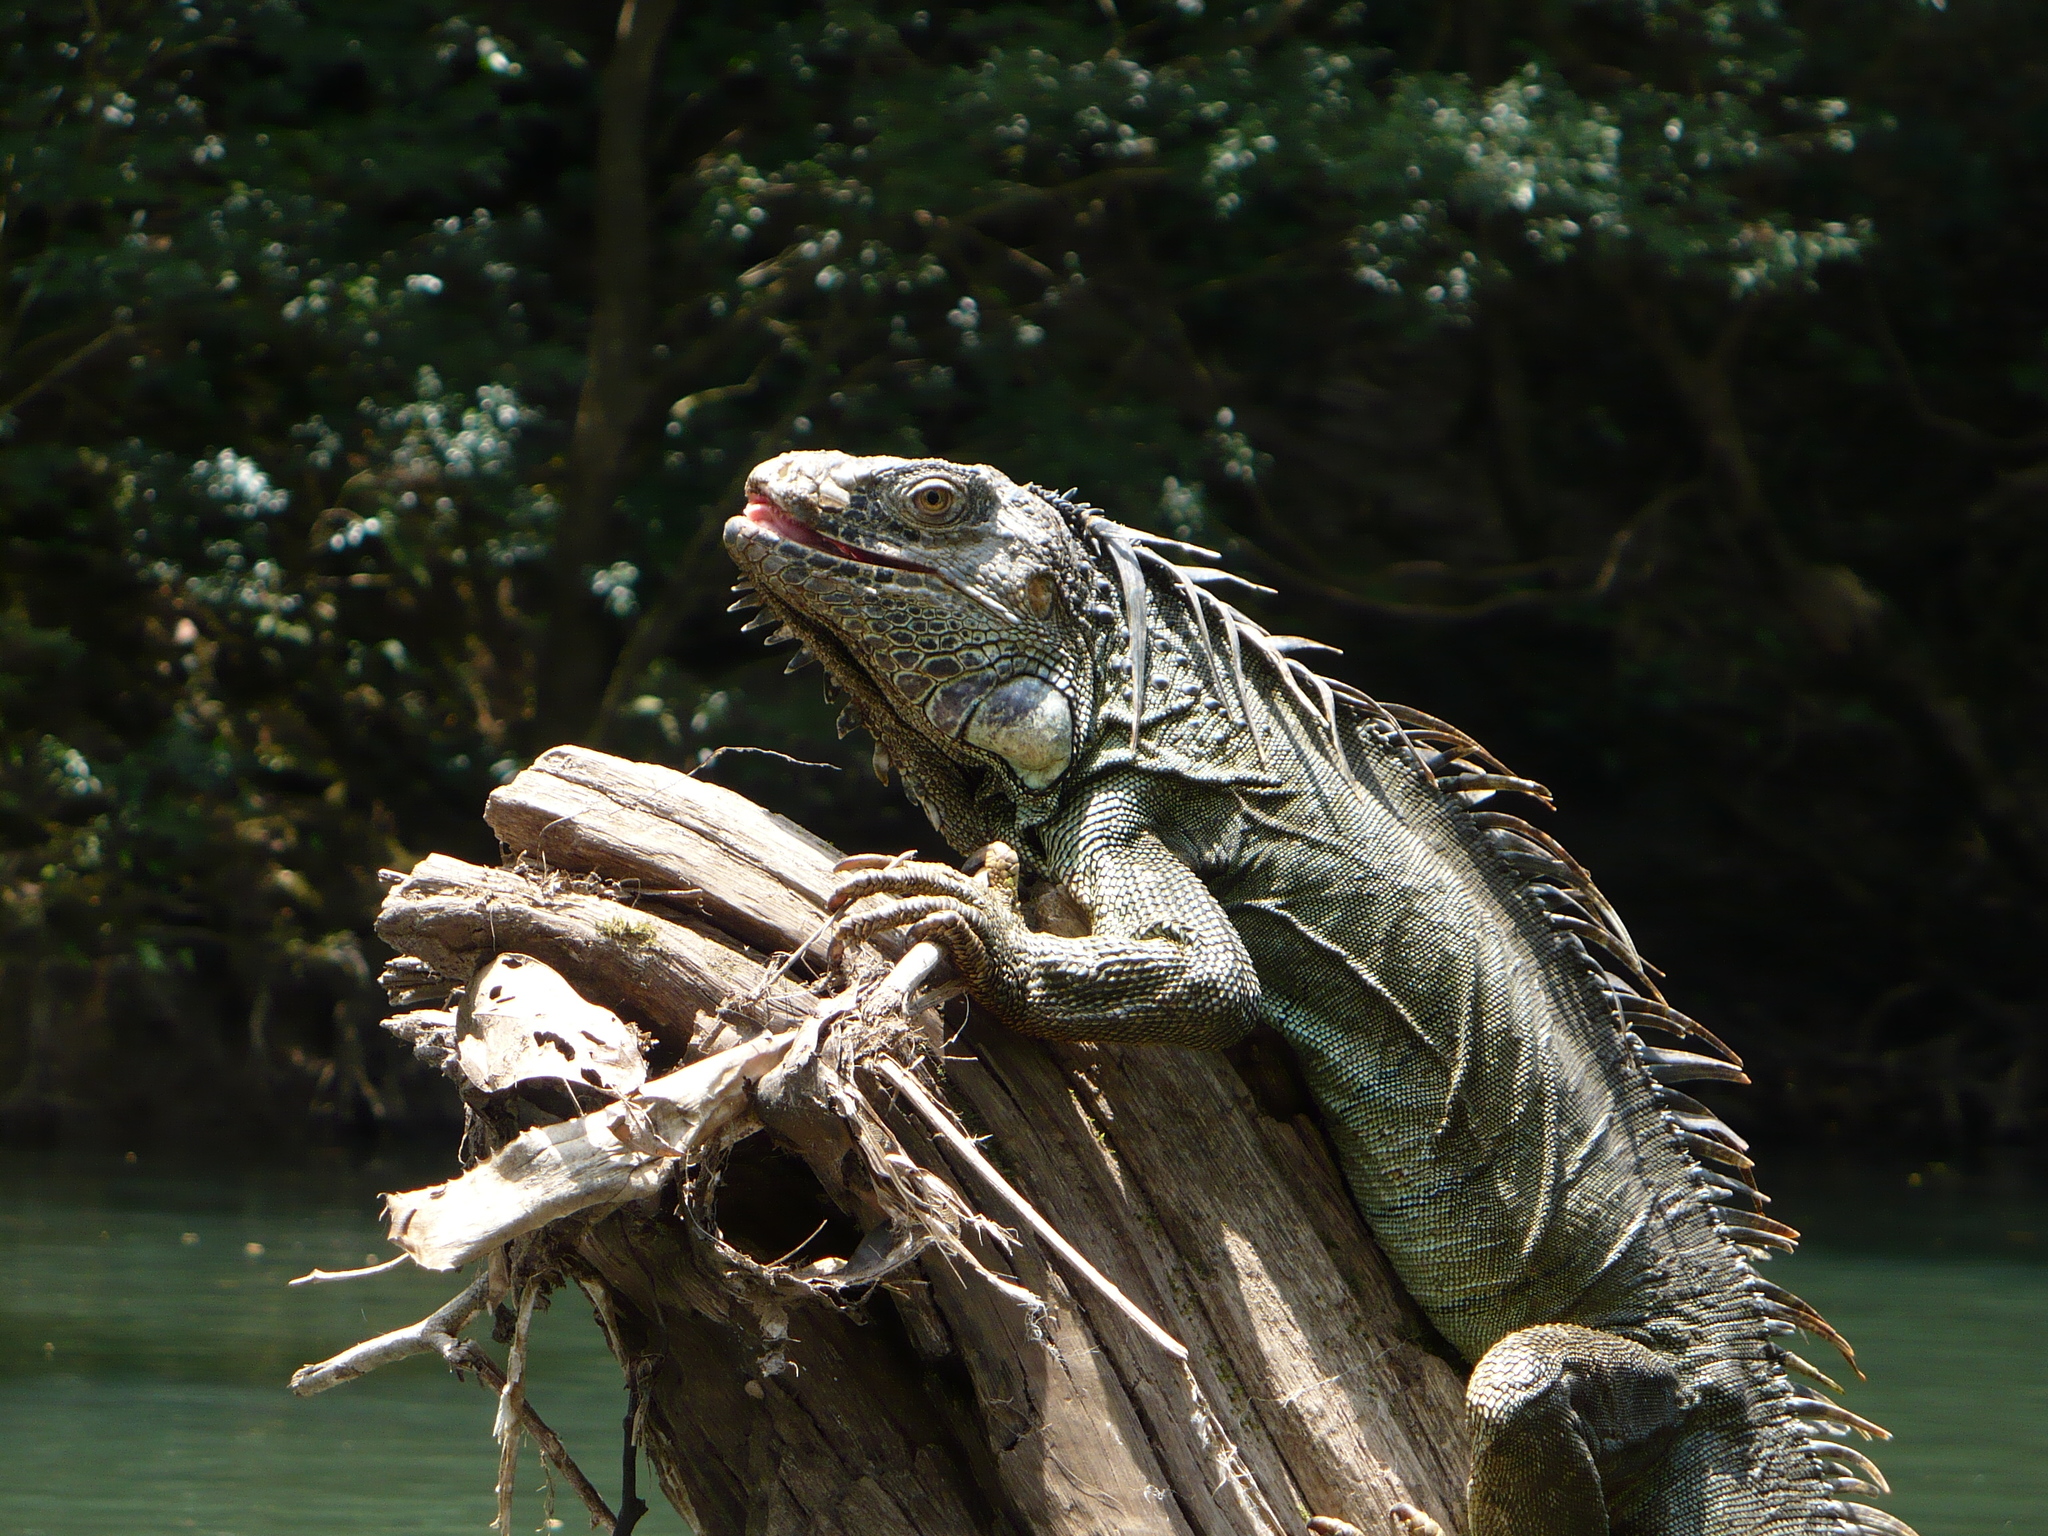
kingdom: Animalia
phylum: Chordata
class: Squamata
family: Iguanidae
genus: Iguana
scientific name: Iguana iguana
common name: Green iguana
